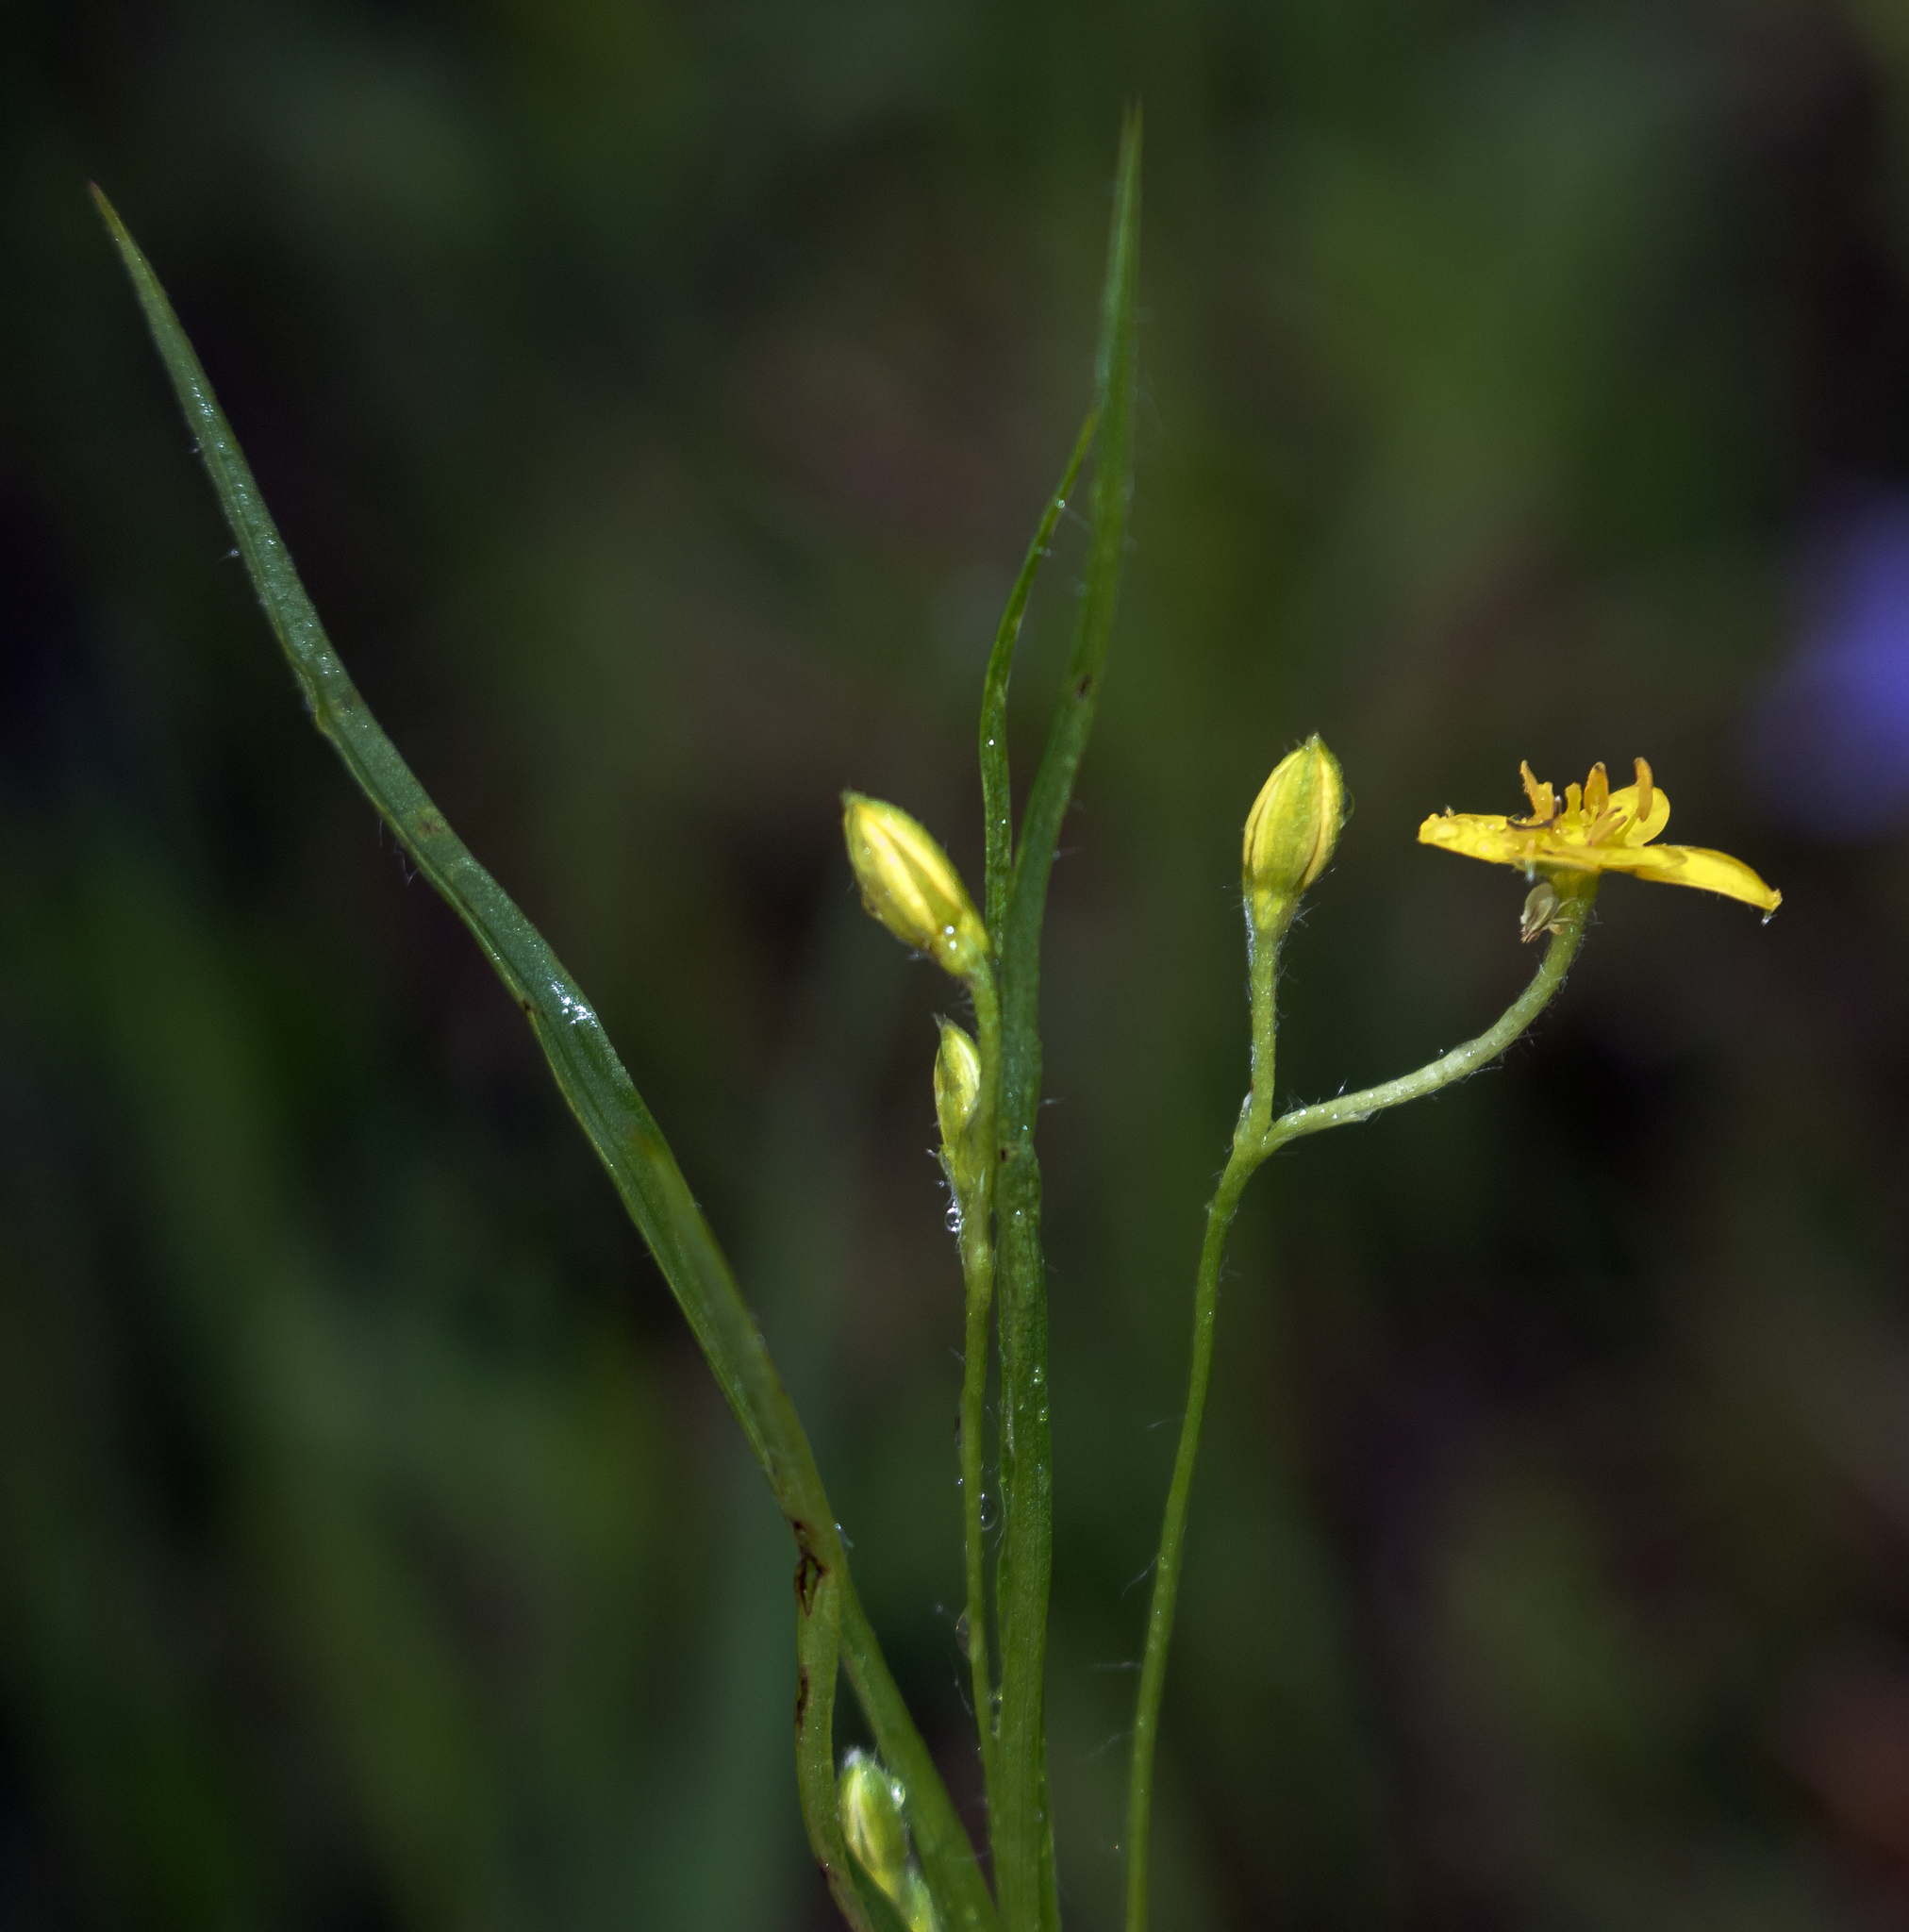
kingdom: Plantae
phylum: Tracheophyta
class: Liliopsida
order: Asparagales
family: Hypoxidaceae
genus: Hypoxis
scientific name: Hypoxis hirsuta
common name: Common goldstar
